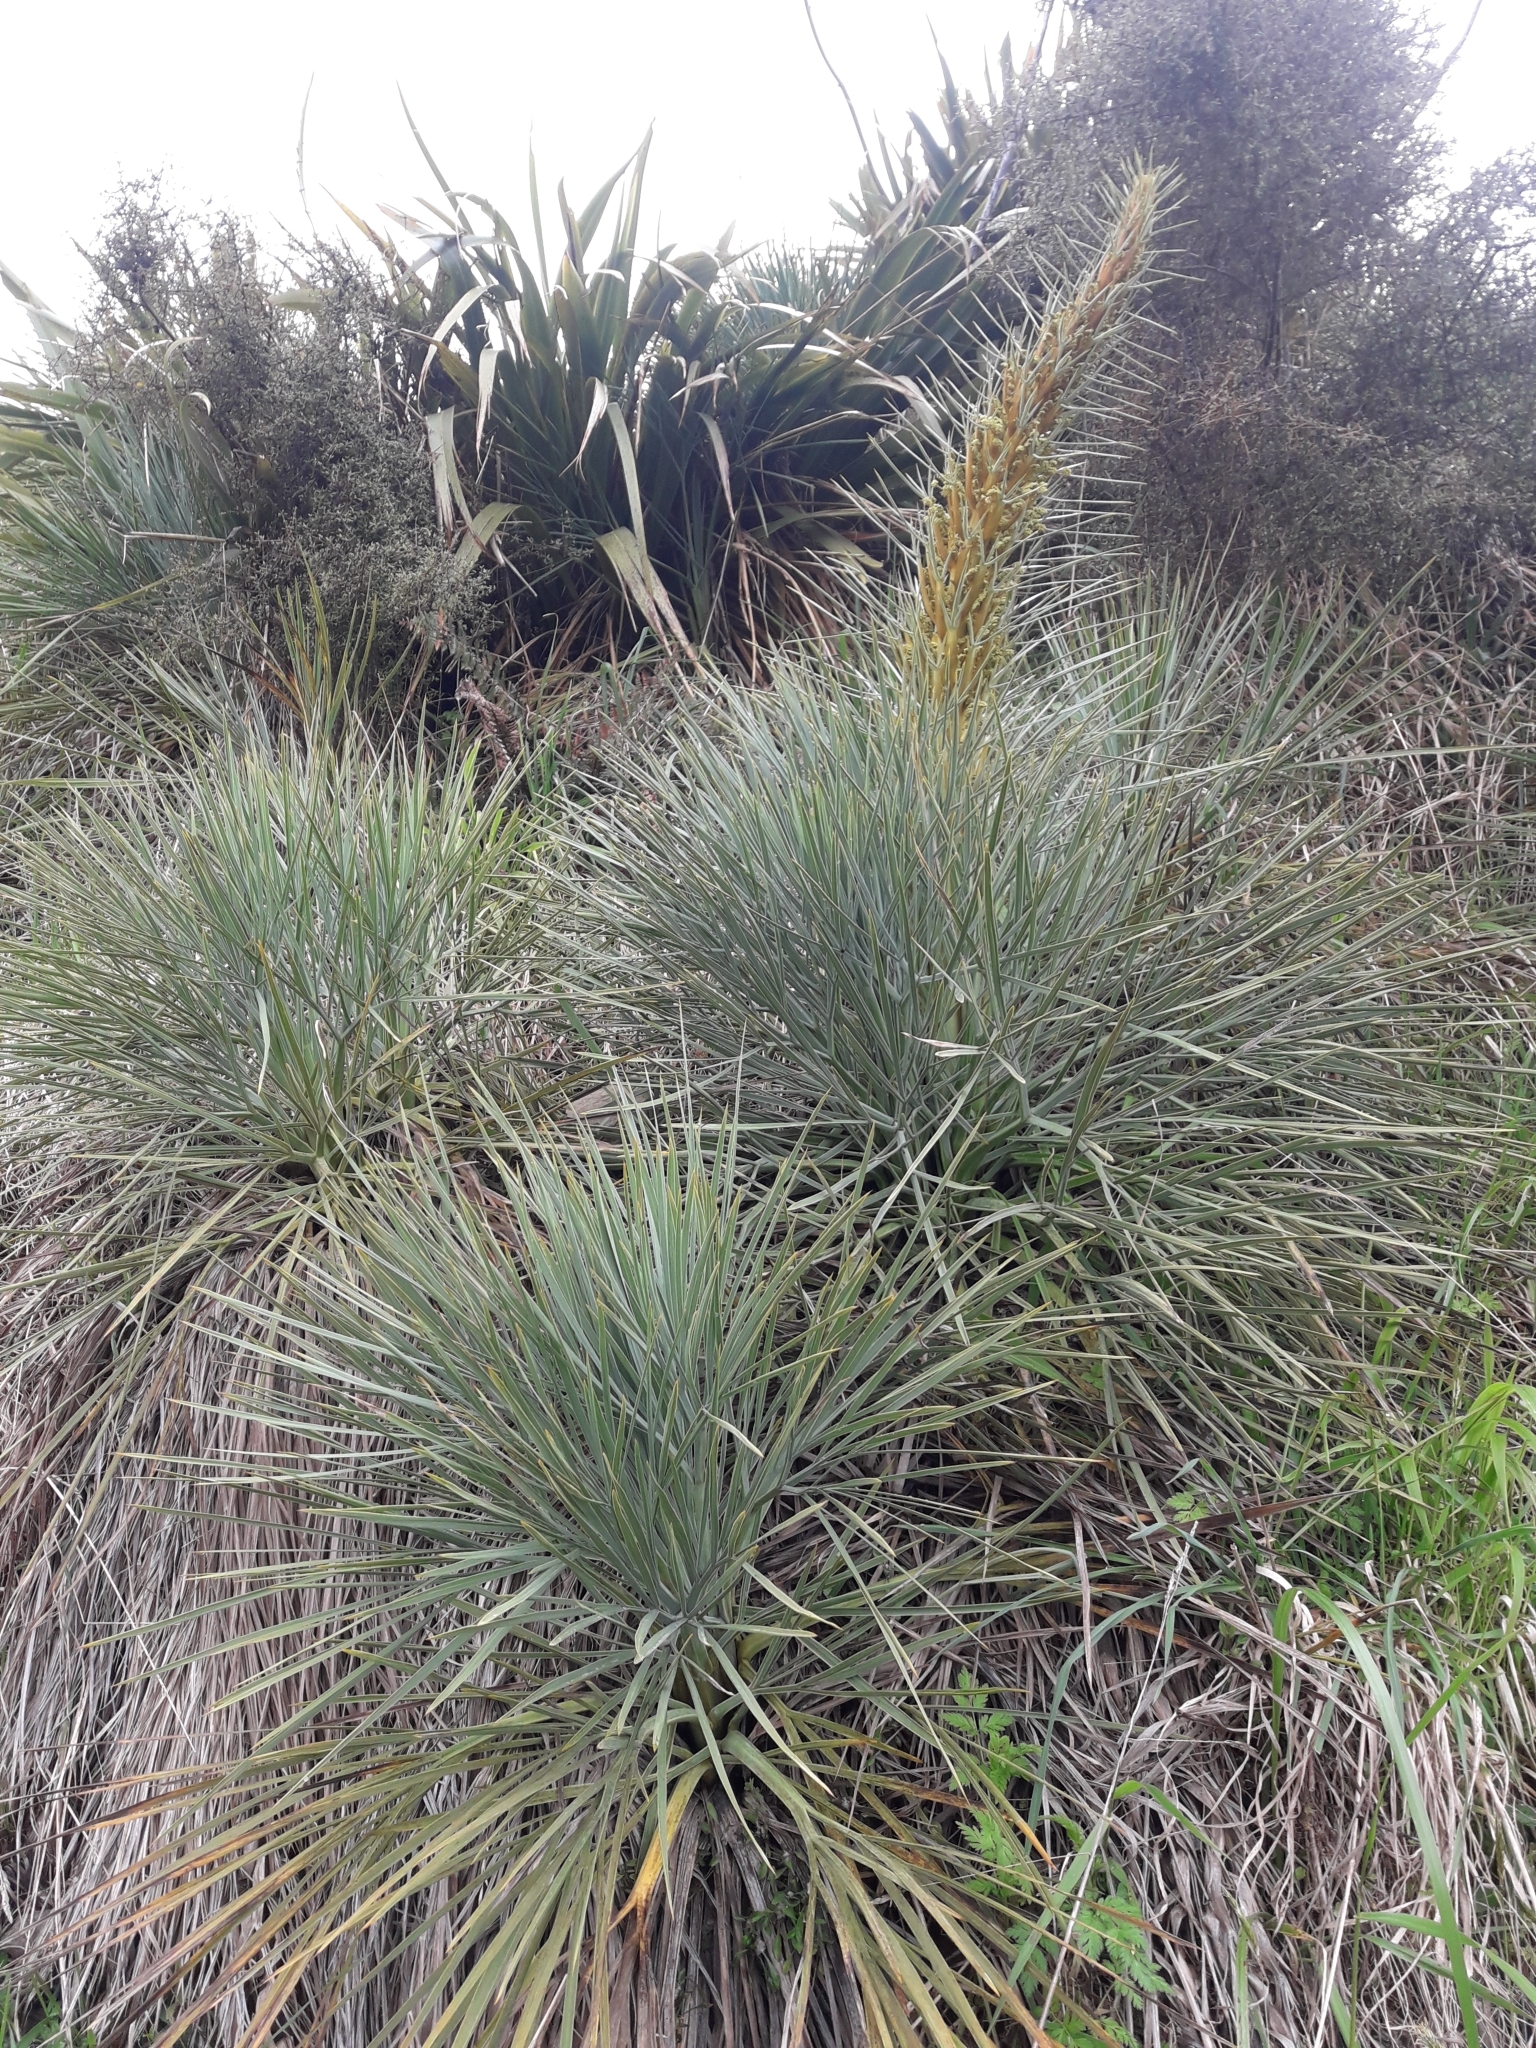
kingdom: Plantae
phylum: Tracheophyta
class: Magnoliopsida
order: Apiales
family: Apiaceae
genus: Aciphylla
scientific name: Aciphylla glaucescens
